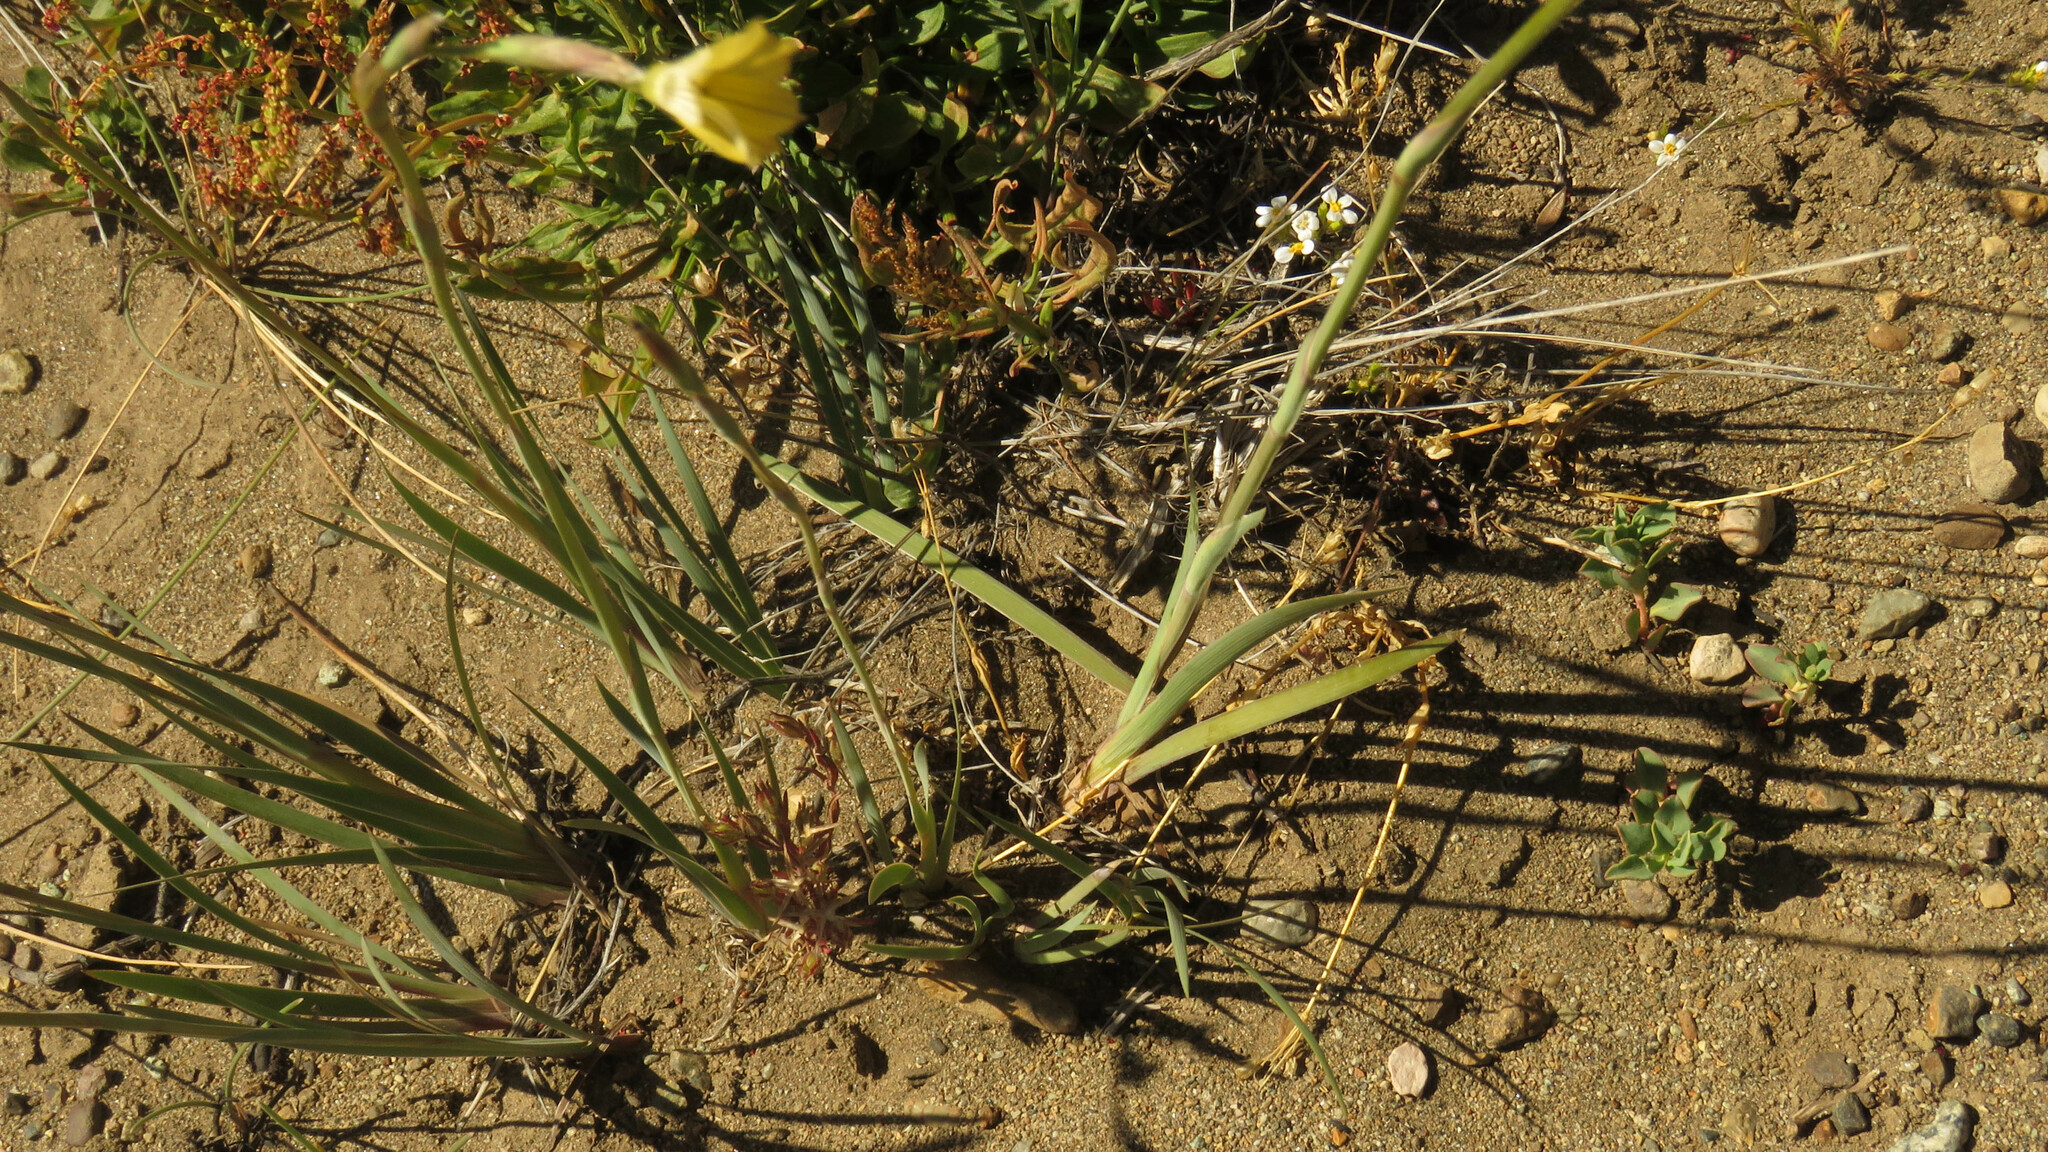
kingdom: Plantae
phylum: Tracheophyta
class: Liliopsida
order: Asparagales
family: Iridaceae
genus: Sisyrinchium
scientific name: Sisyrinchium arenarium
